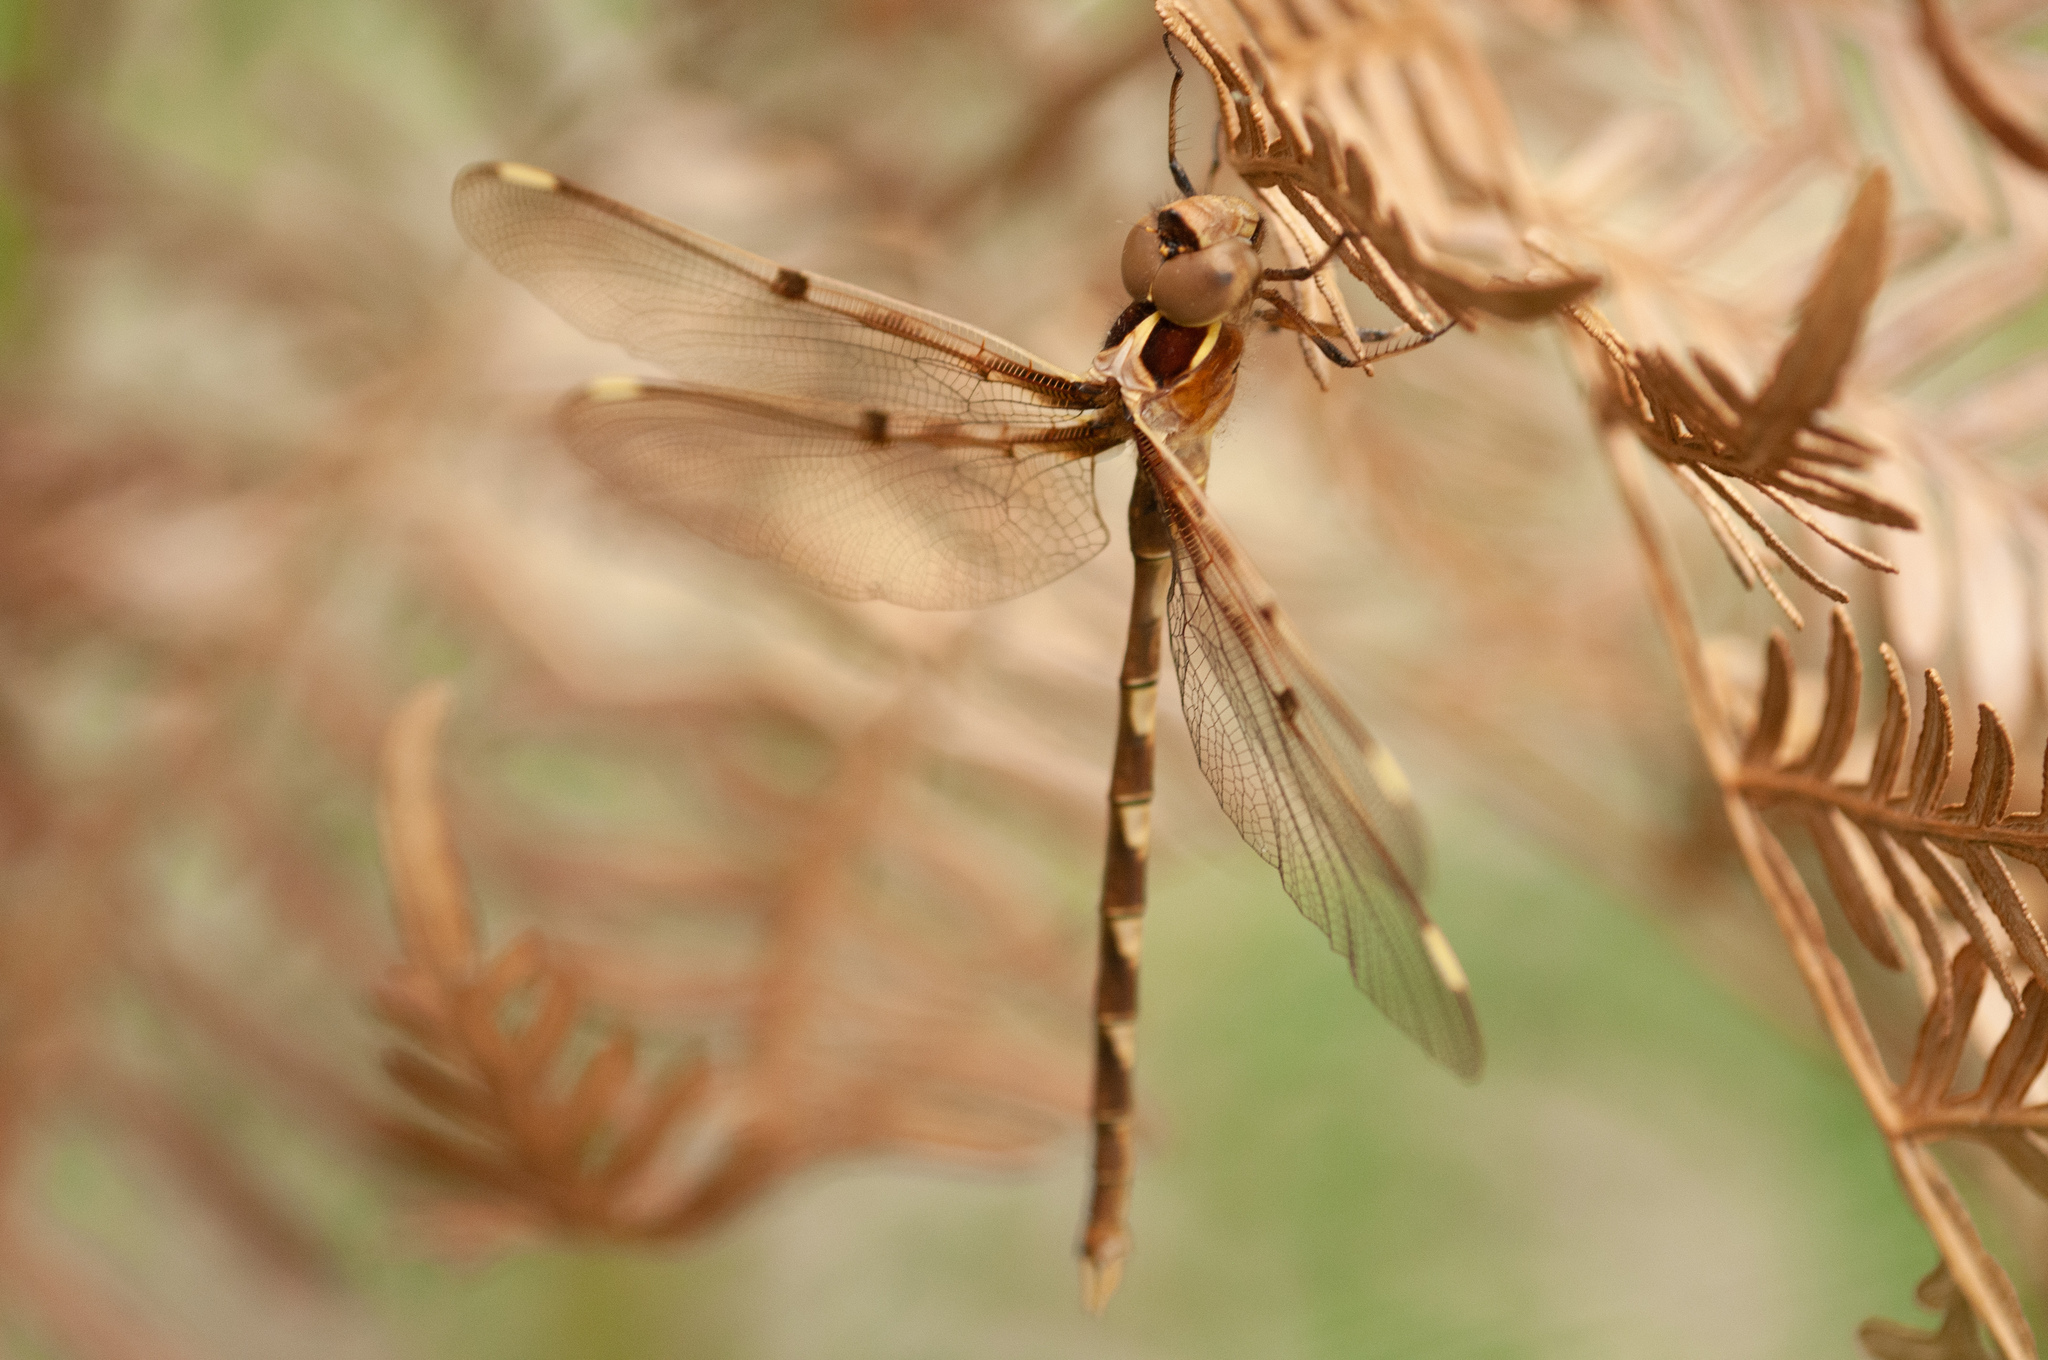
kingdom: Animalia
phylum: Arthropoda
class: Insecta
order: Odonata
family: Aeshnidae
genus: Telephlebia
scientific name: Telephlebia brevicauda
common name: Southern evening darner
